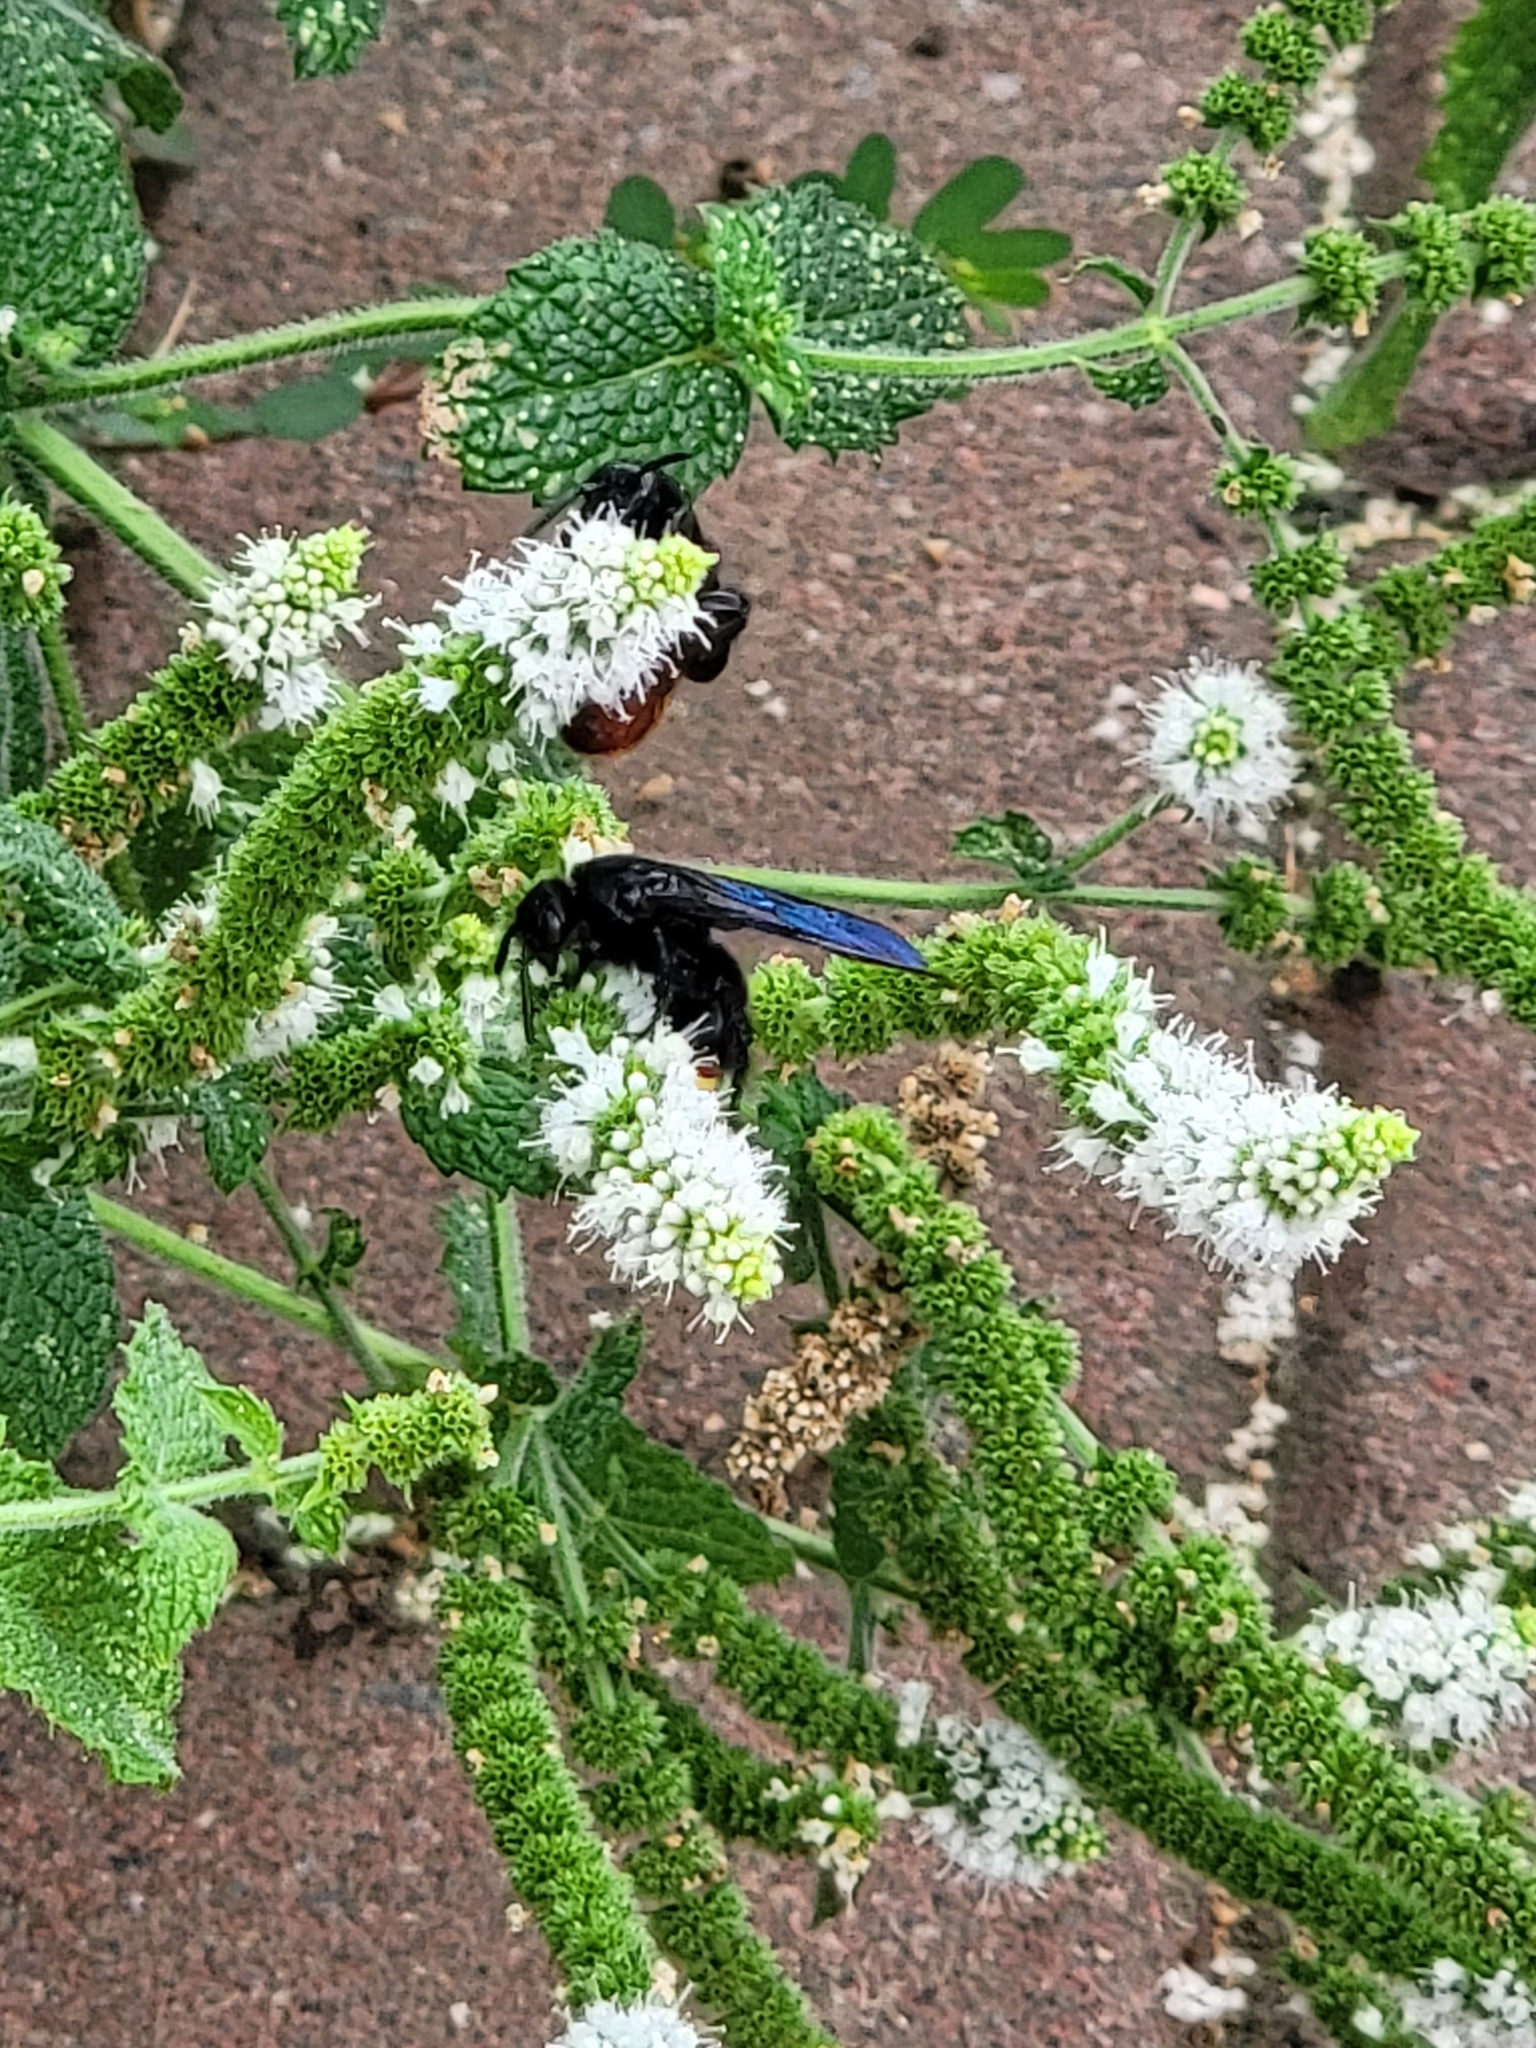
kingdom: Animalia
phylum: Arthropoda
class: Insecta
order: Hymenoptera
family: Scoliidae
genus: Scolia
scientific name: Scolia dubia
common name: Blue-winged scoliid wasp
